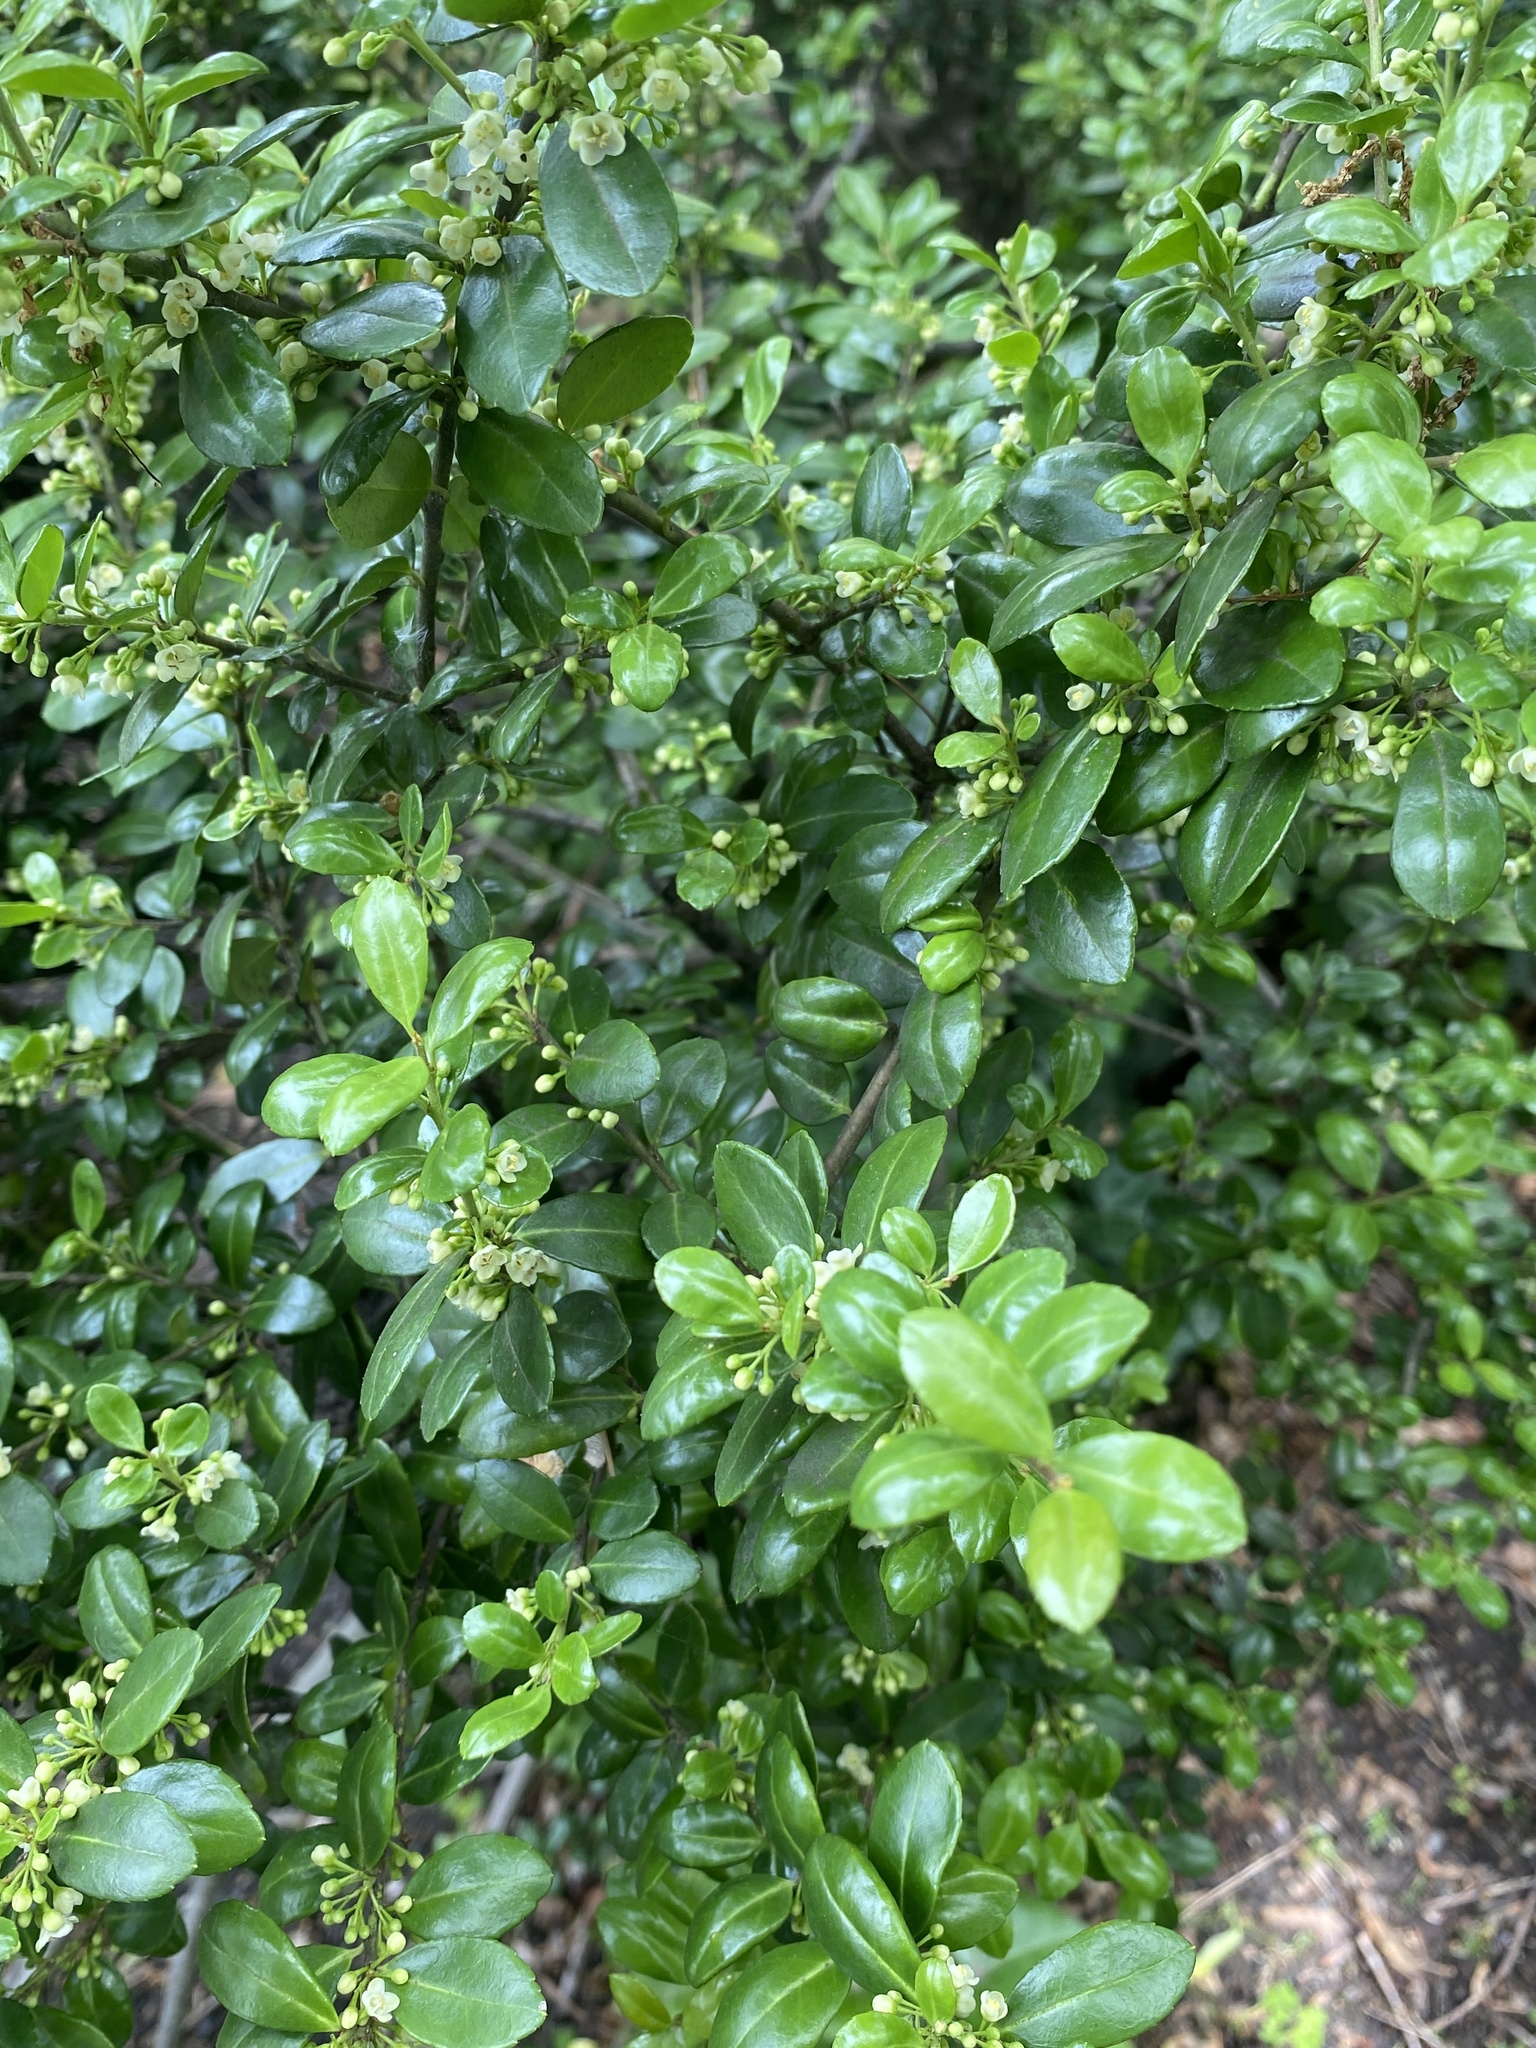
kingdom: Plantae
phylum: Tracheophyta
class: Magnoliopsida
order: Aquifoliales
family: Aquifoliaceae
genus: Ilex
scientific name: Ilex crenata
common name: Japanese holly
